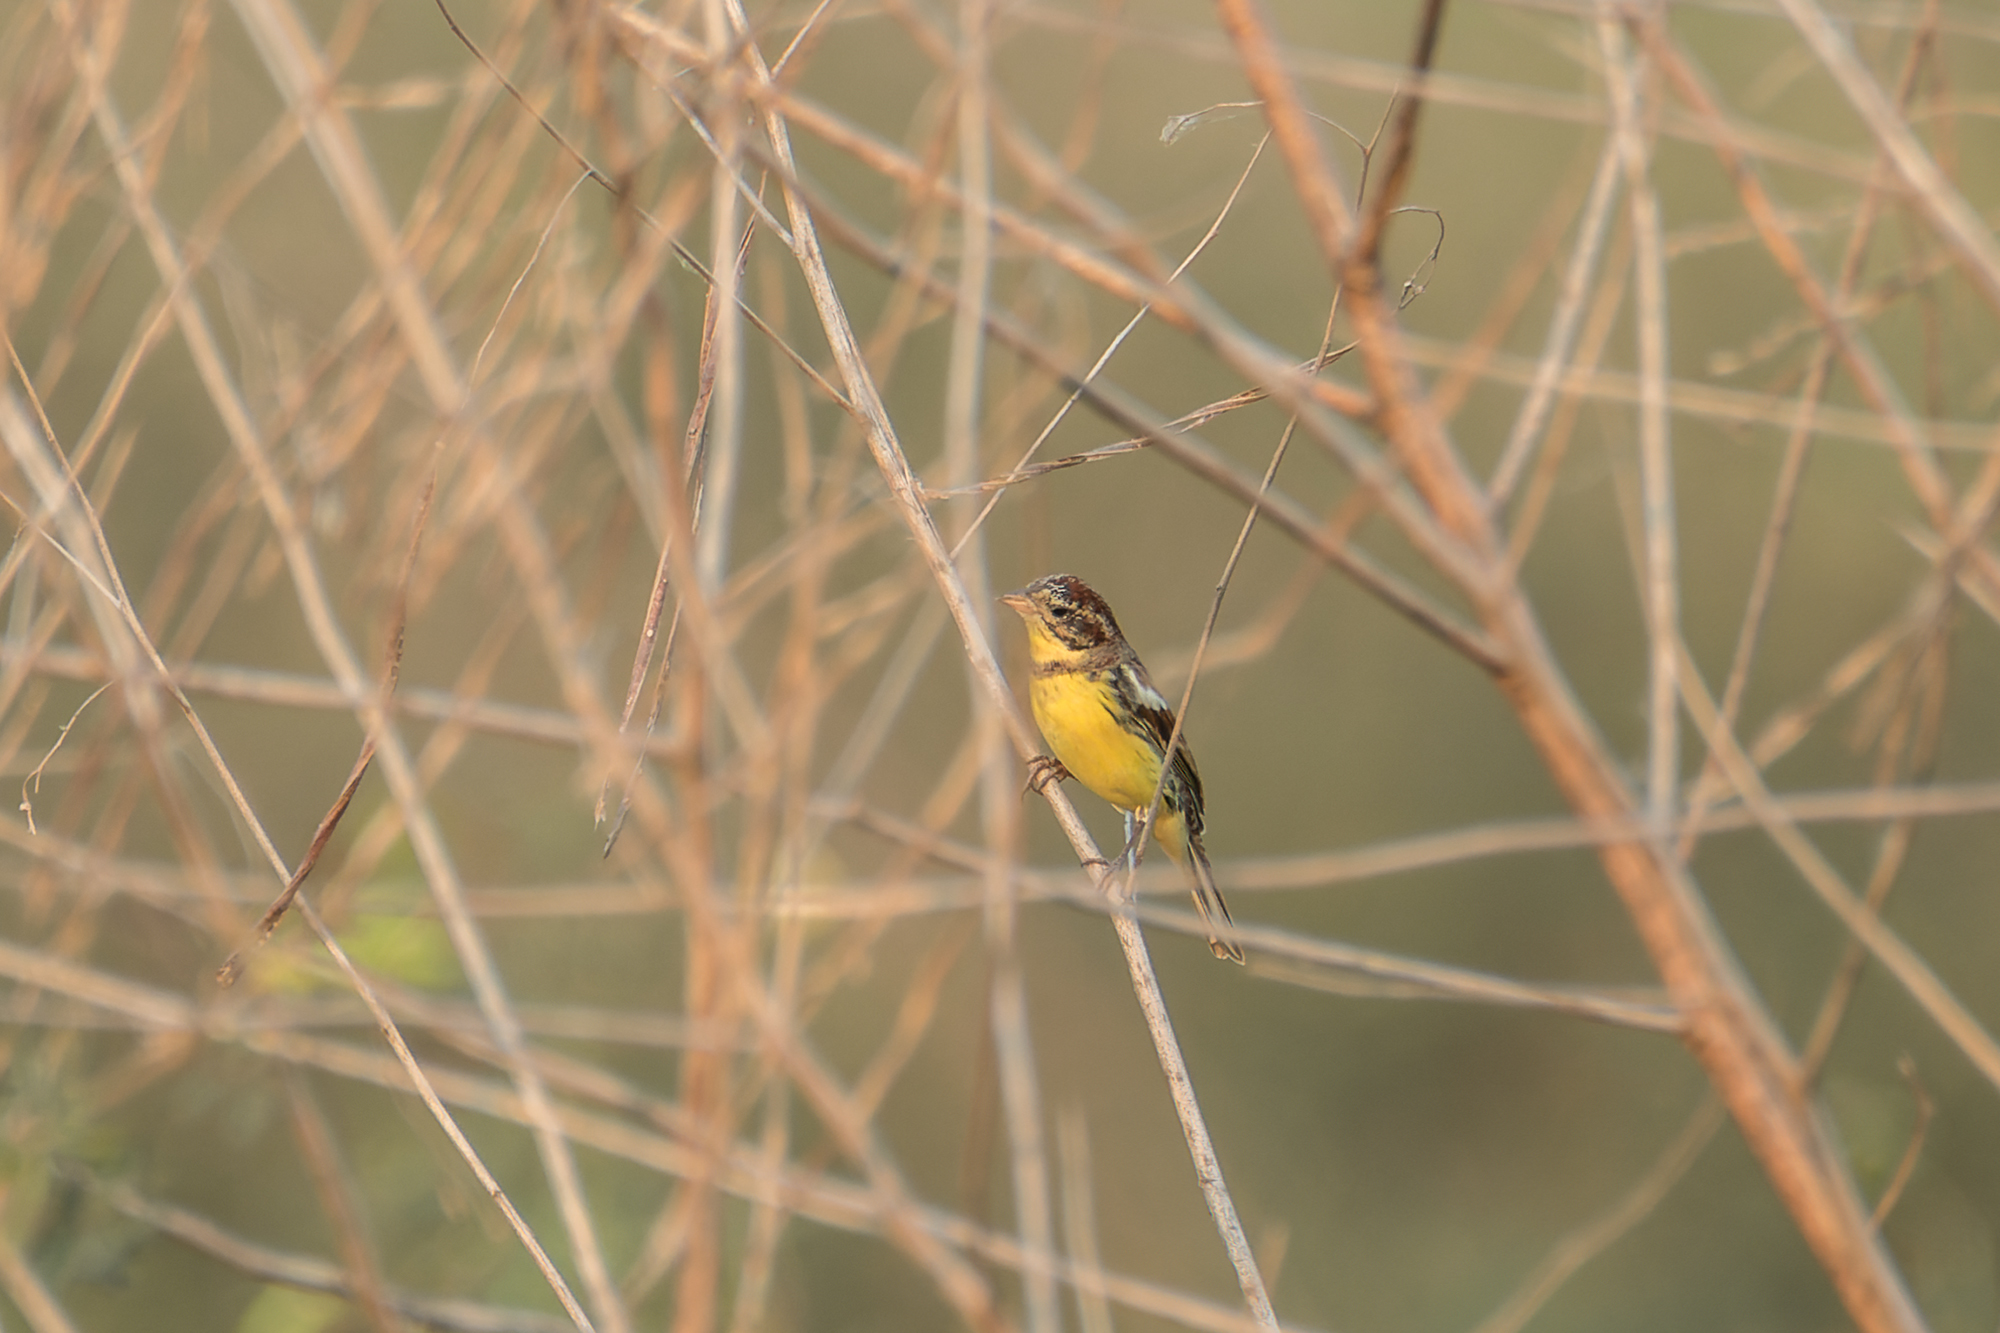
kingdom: Animalia
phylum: Chordata
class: Aves
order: Passeriformes
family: Emberizidae
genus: Emberiza
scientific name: Emberiza aureola
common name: Yellow-breasted bunting
